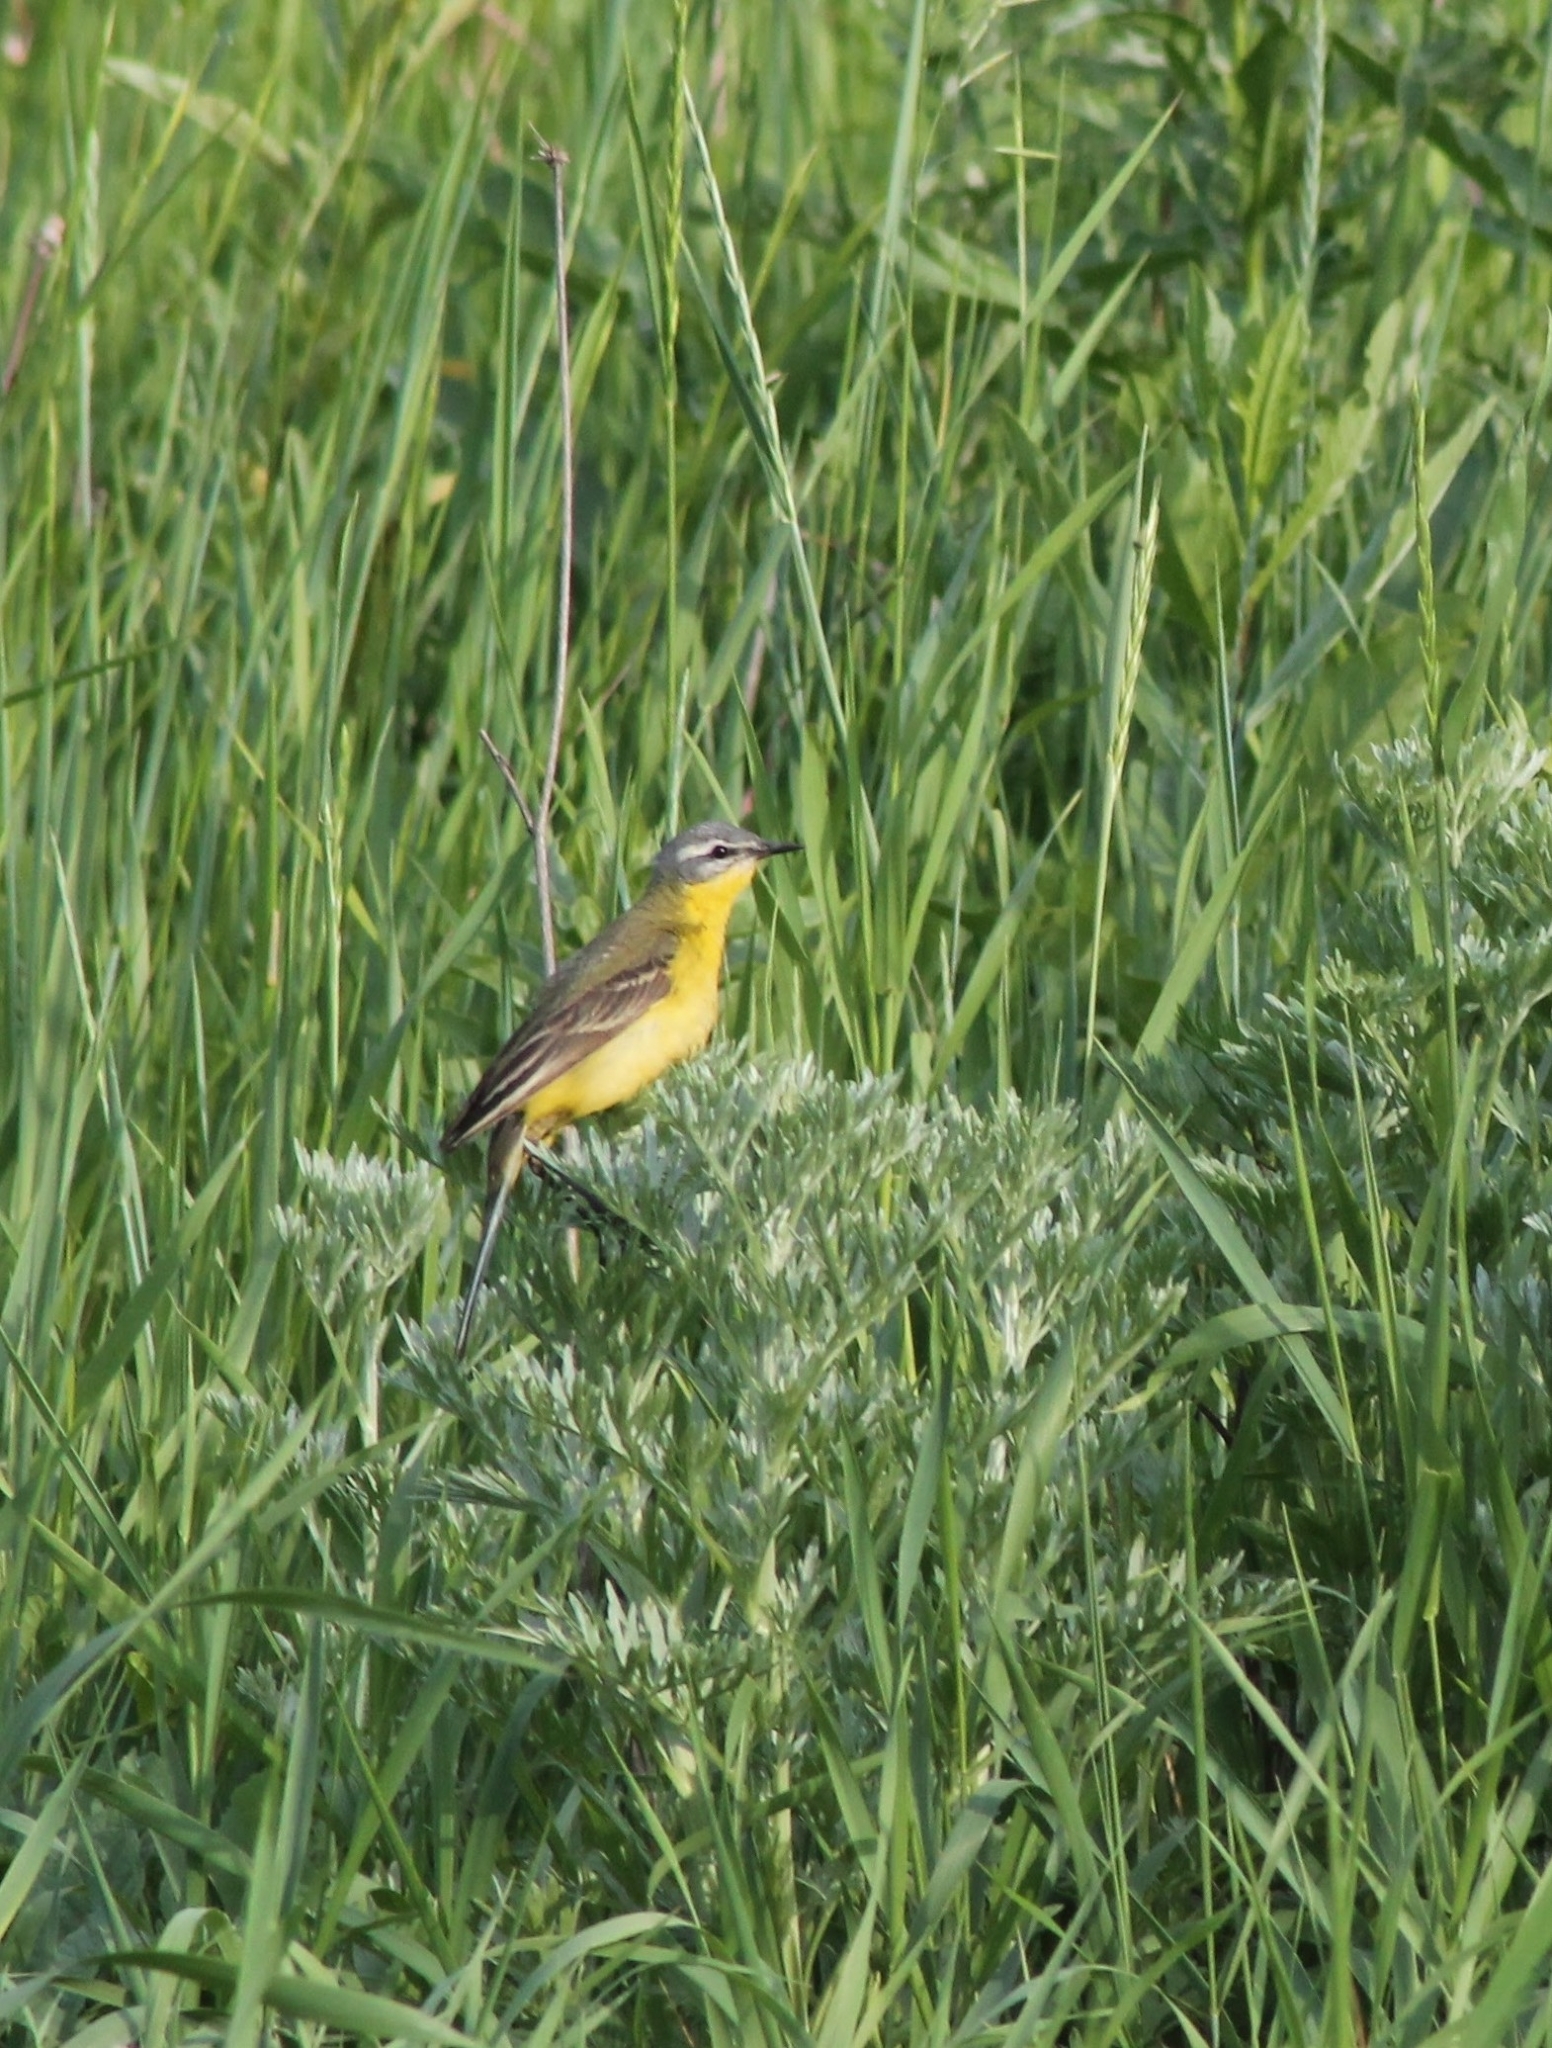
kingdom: Animalia
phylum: Chordata
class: Aves
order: Passeriformes
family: Motacillidae
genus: Motacilla
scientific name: Motacilla flava
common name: Western yellow wagtail
